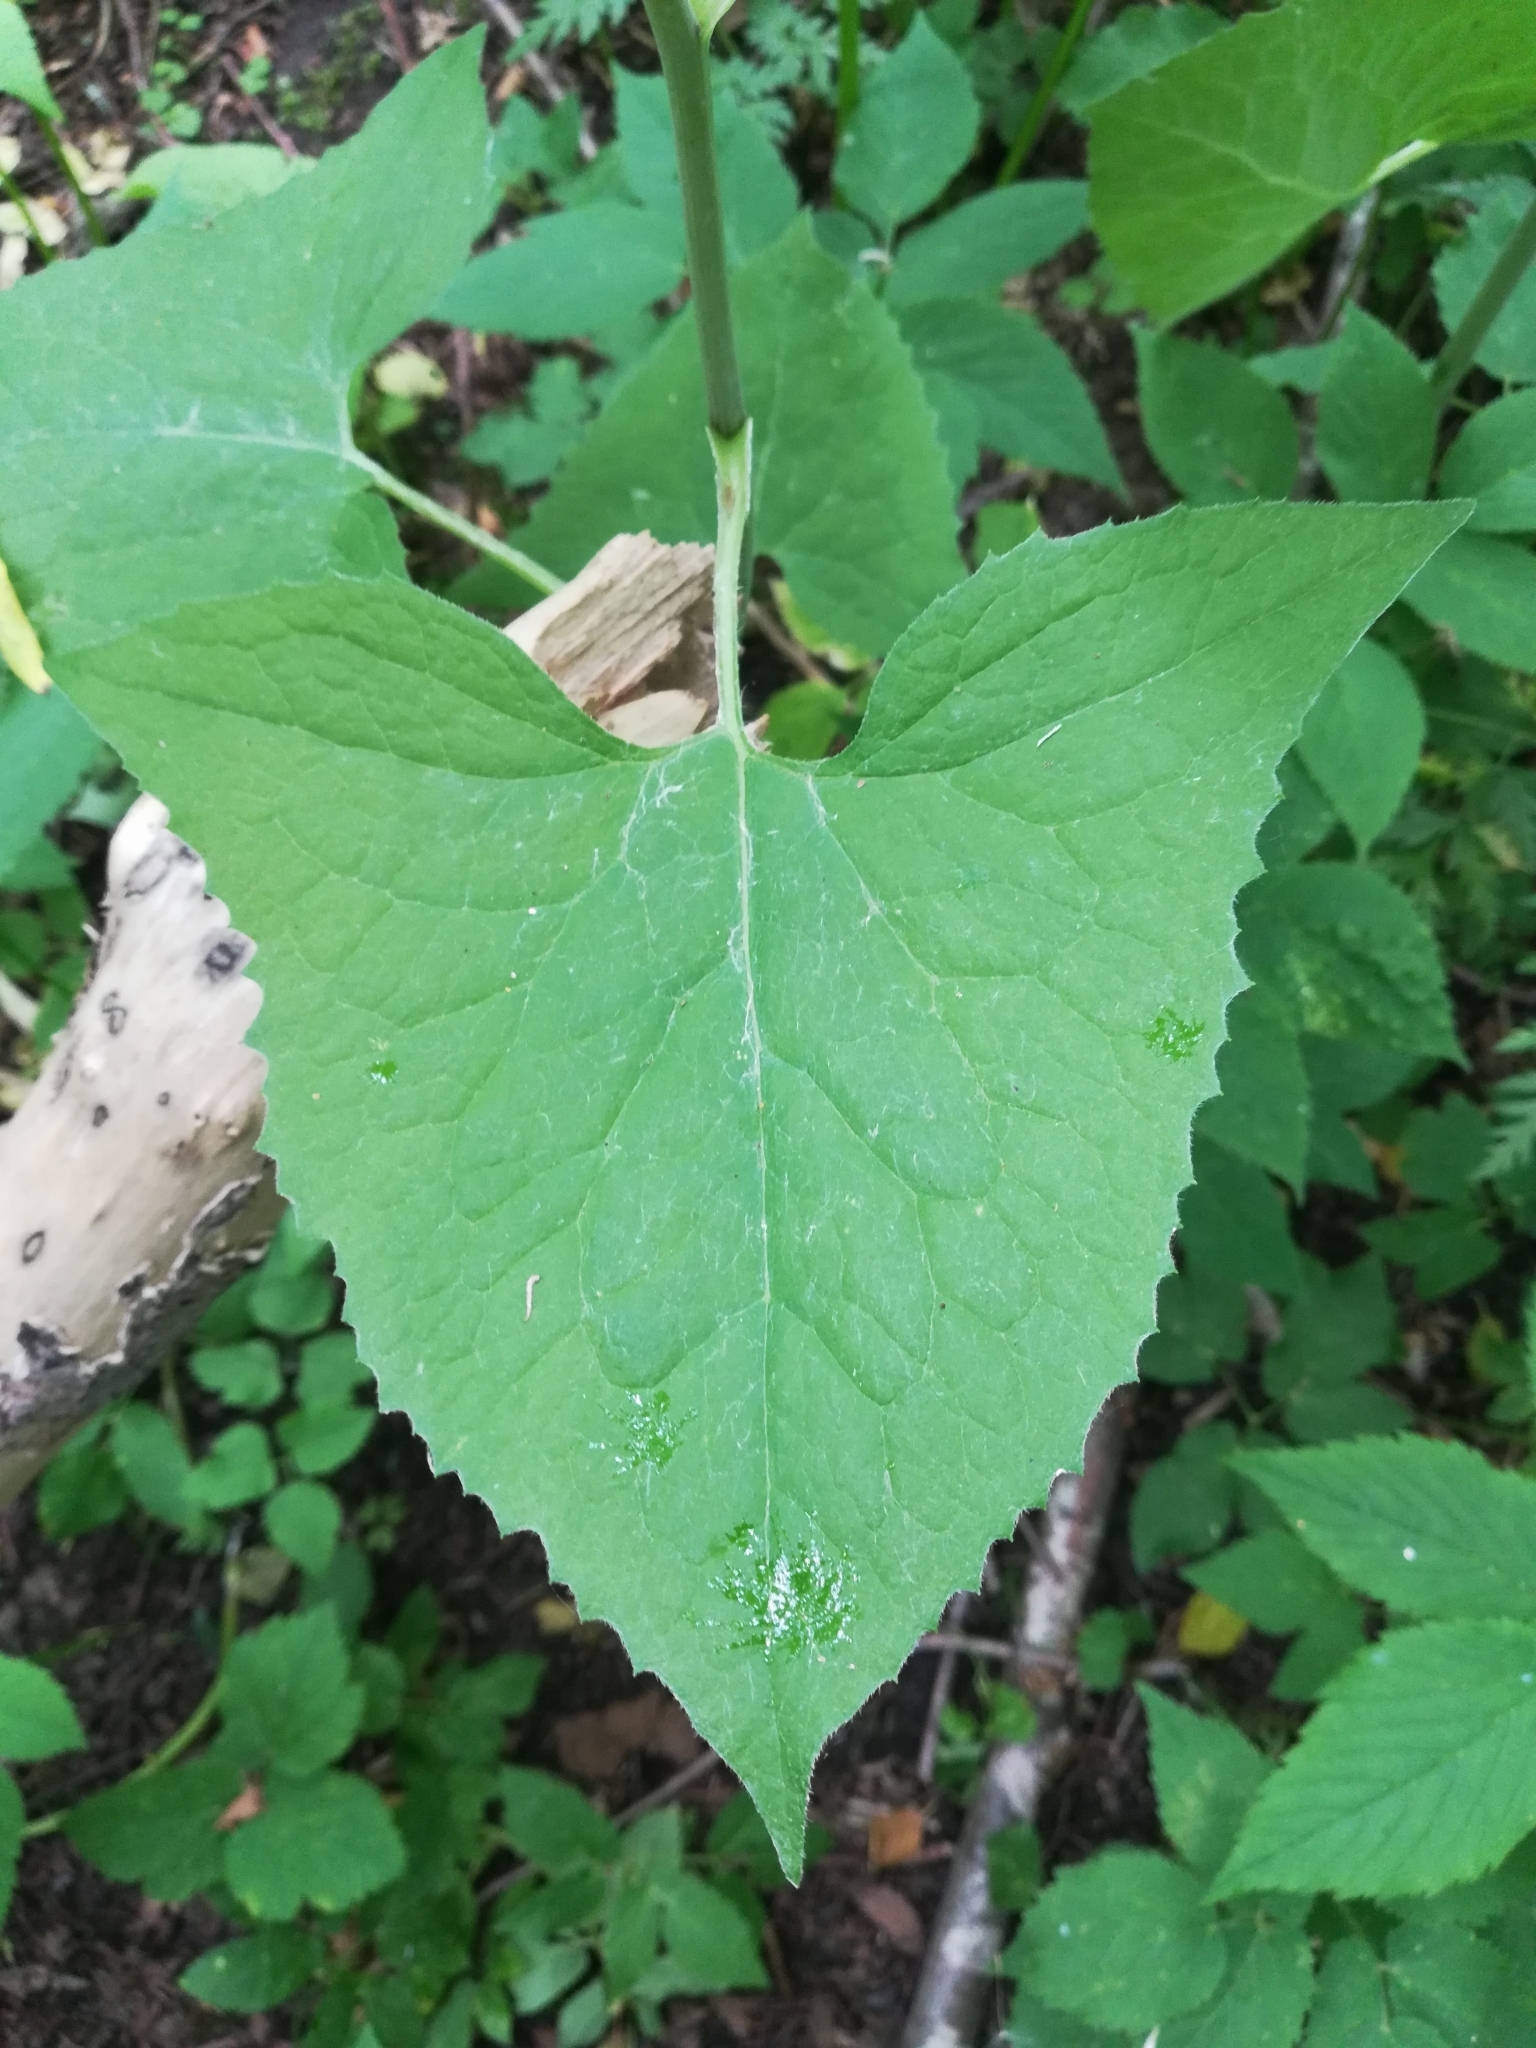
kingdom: Plantae
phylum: Tracheophyta
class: Magnoliopsida
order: Asterales
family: Asteraceae
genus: Parasenecio
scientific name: Parasenecio hastatus
